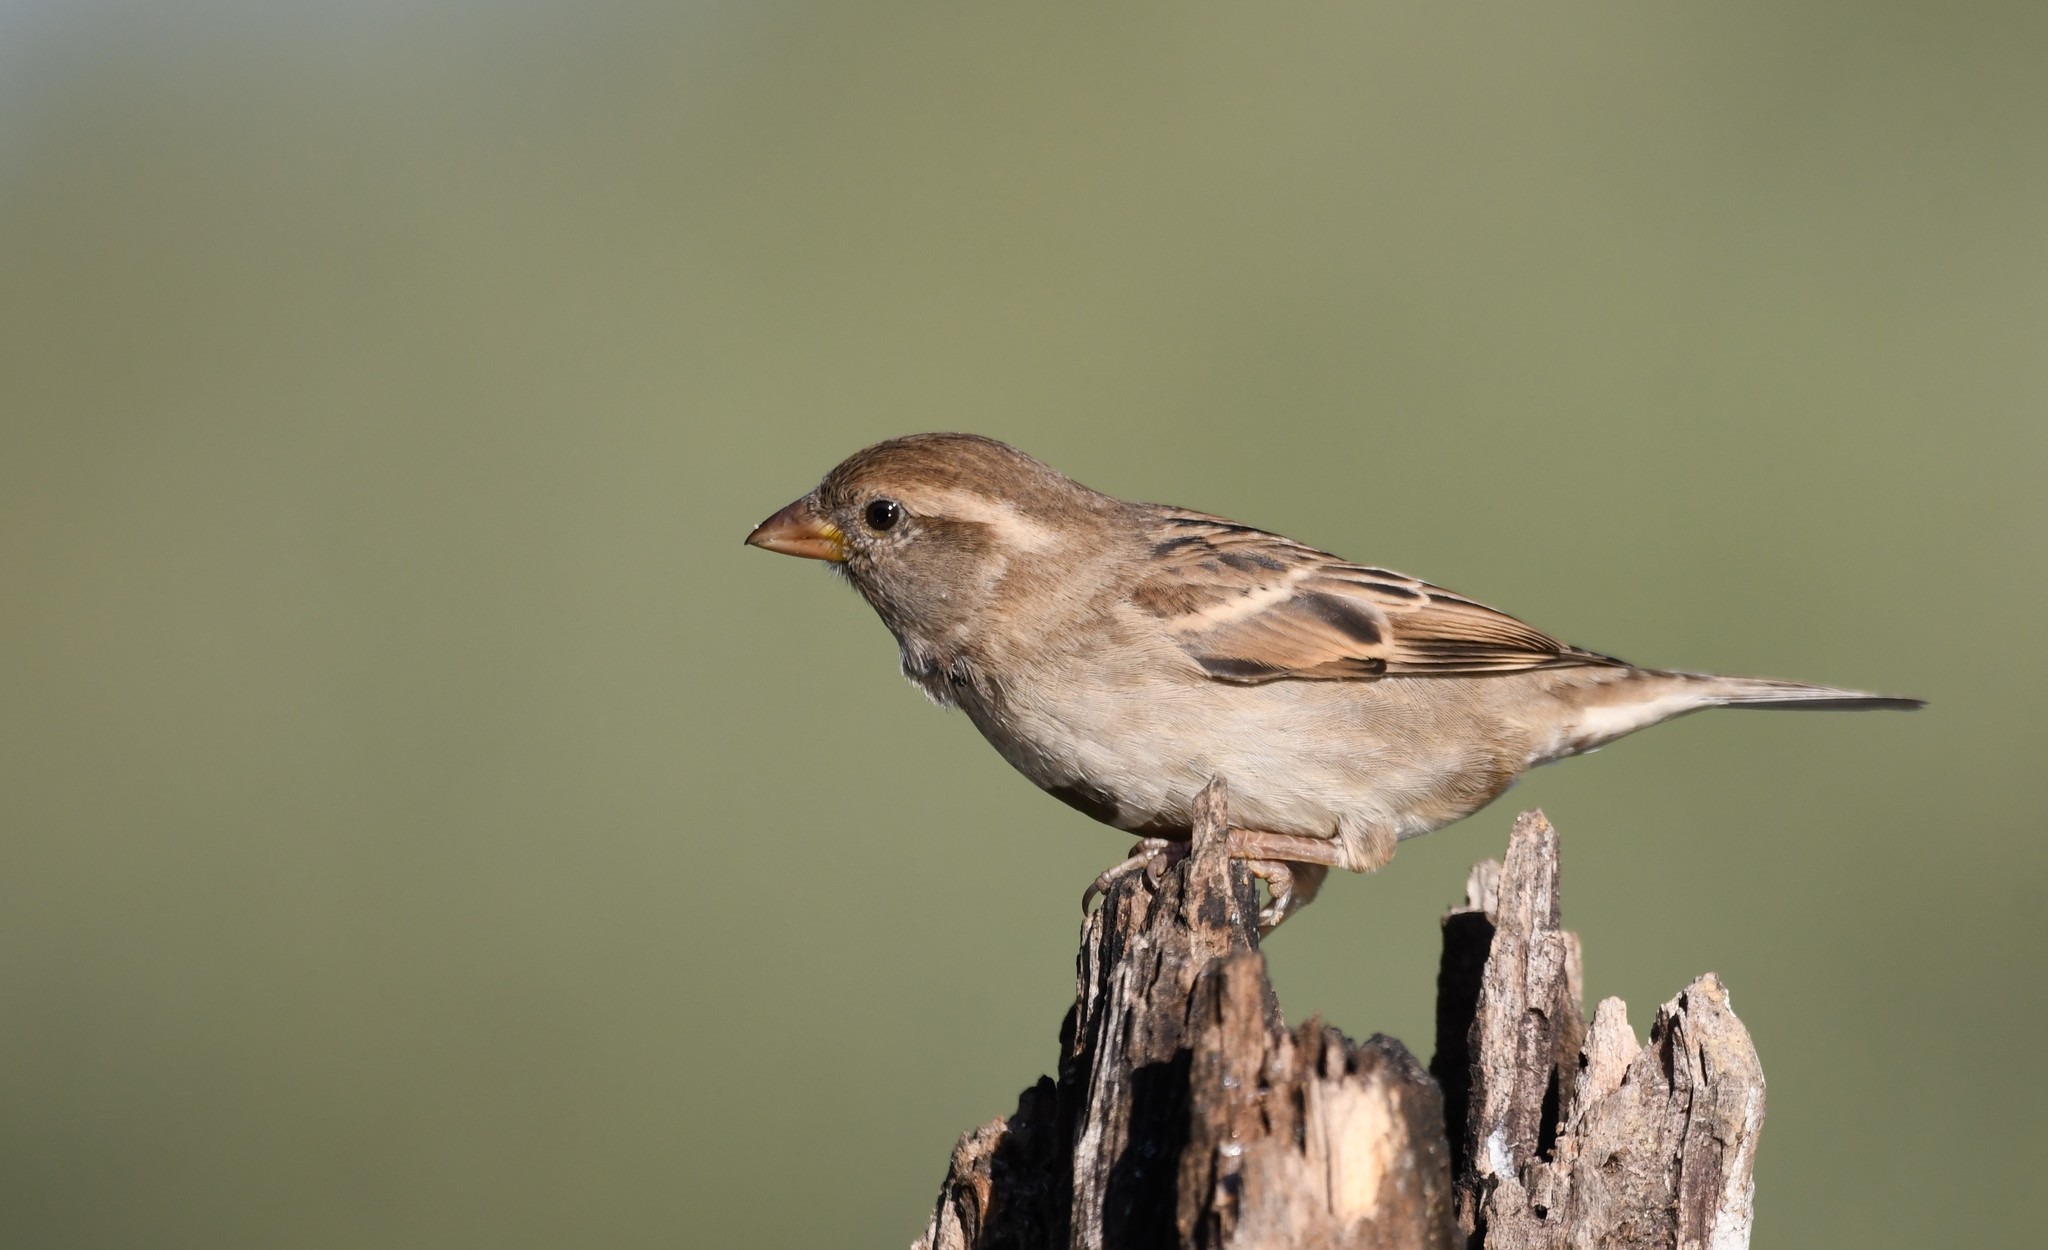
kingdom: Animalia
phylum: Chordata
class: Aves
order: Passeriformes
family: Passeridae
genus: Passer
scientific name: Passer domesticus
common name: House sparrow
